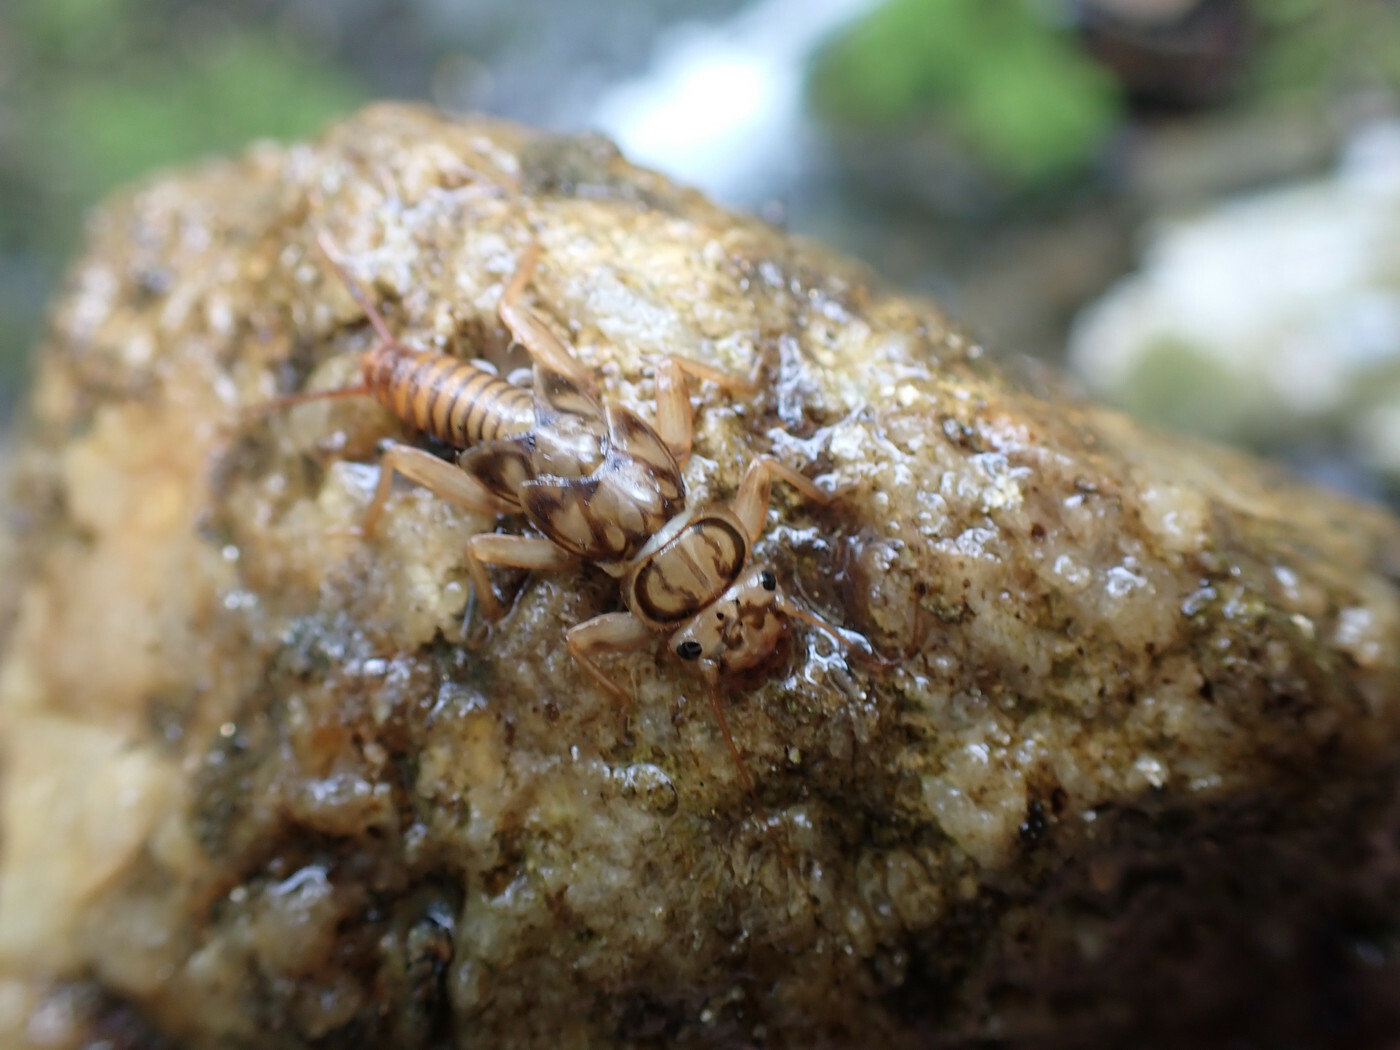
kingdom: Animalia
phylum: Arthropoda
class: Insecta
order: Plecoptera
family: Perlidae
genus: Eccoptura
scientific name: Eccoptura xanthenes
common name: Yellow stone
